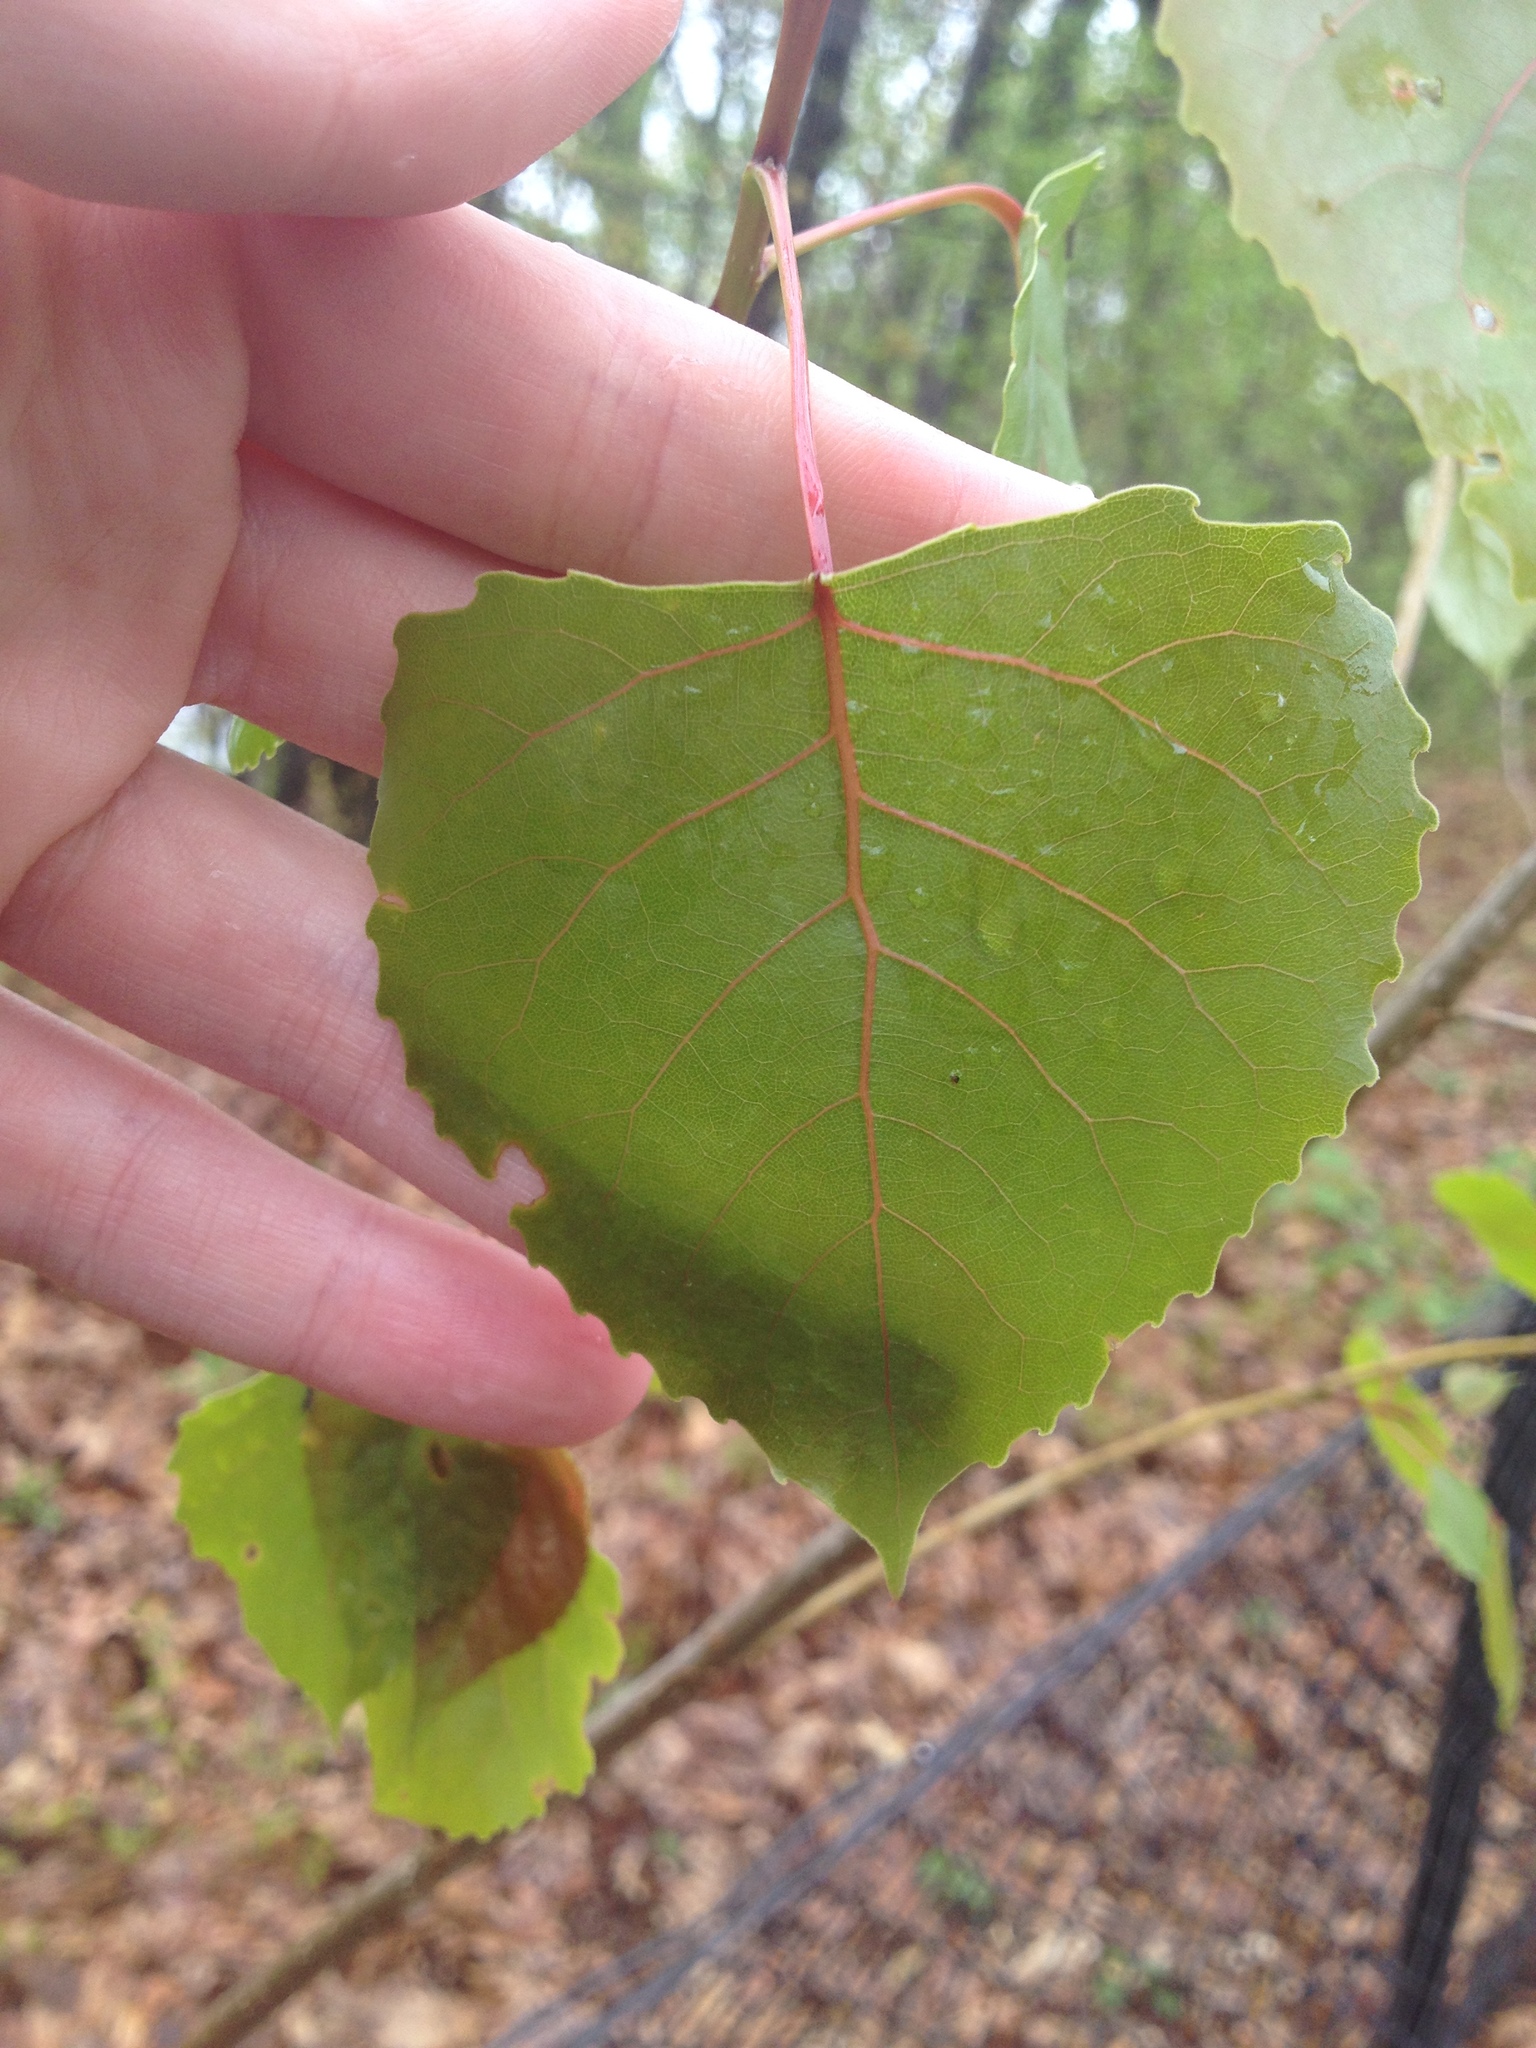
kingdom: Plantae
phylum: Tracheophyta
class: Magnoliopsida
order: Malpighiales
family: Salicaceae
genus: Populus
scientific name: Populus deltoides
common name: Eastern cottonwood
